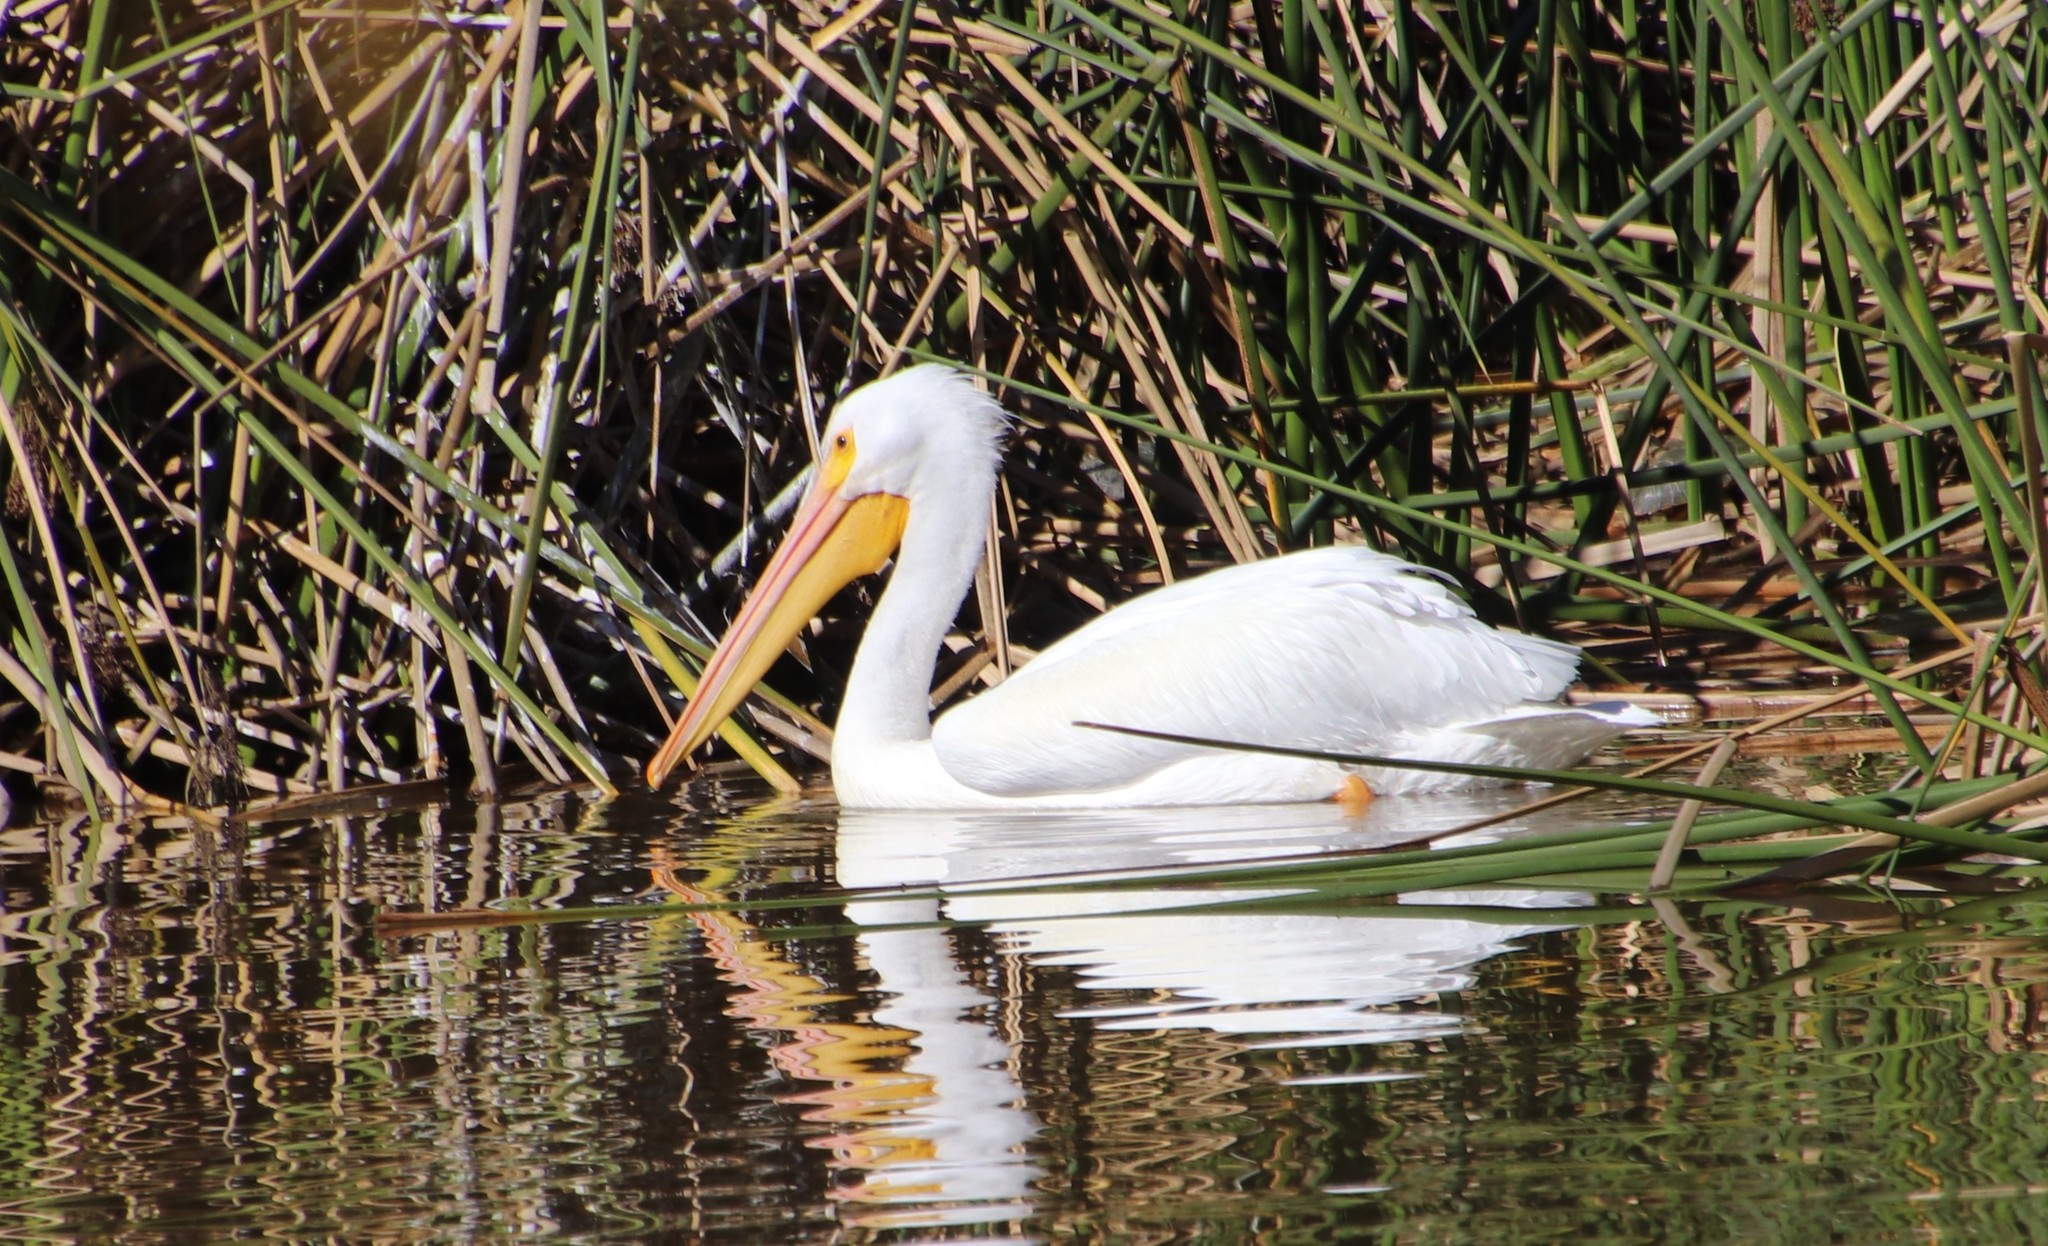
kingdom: Animalia
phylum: Chordata
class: Aves
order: Pelecaniformes
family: Pelecanidae
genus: Pelecanus
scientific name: Pelecanus erythrorhynchos
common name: American white pelican
